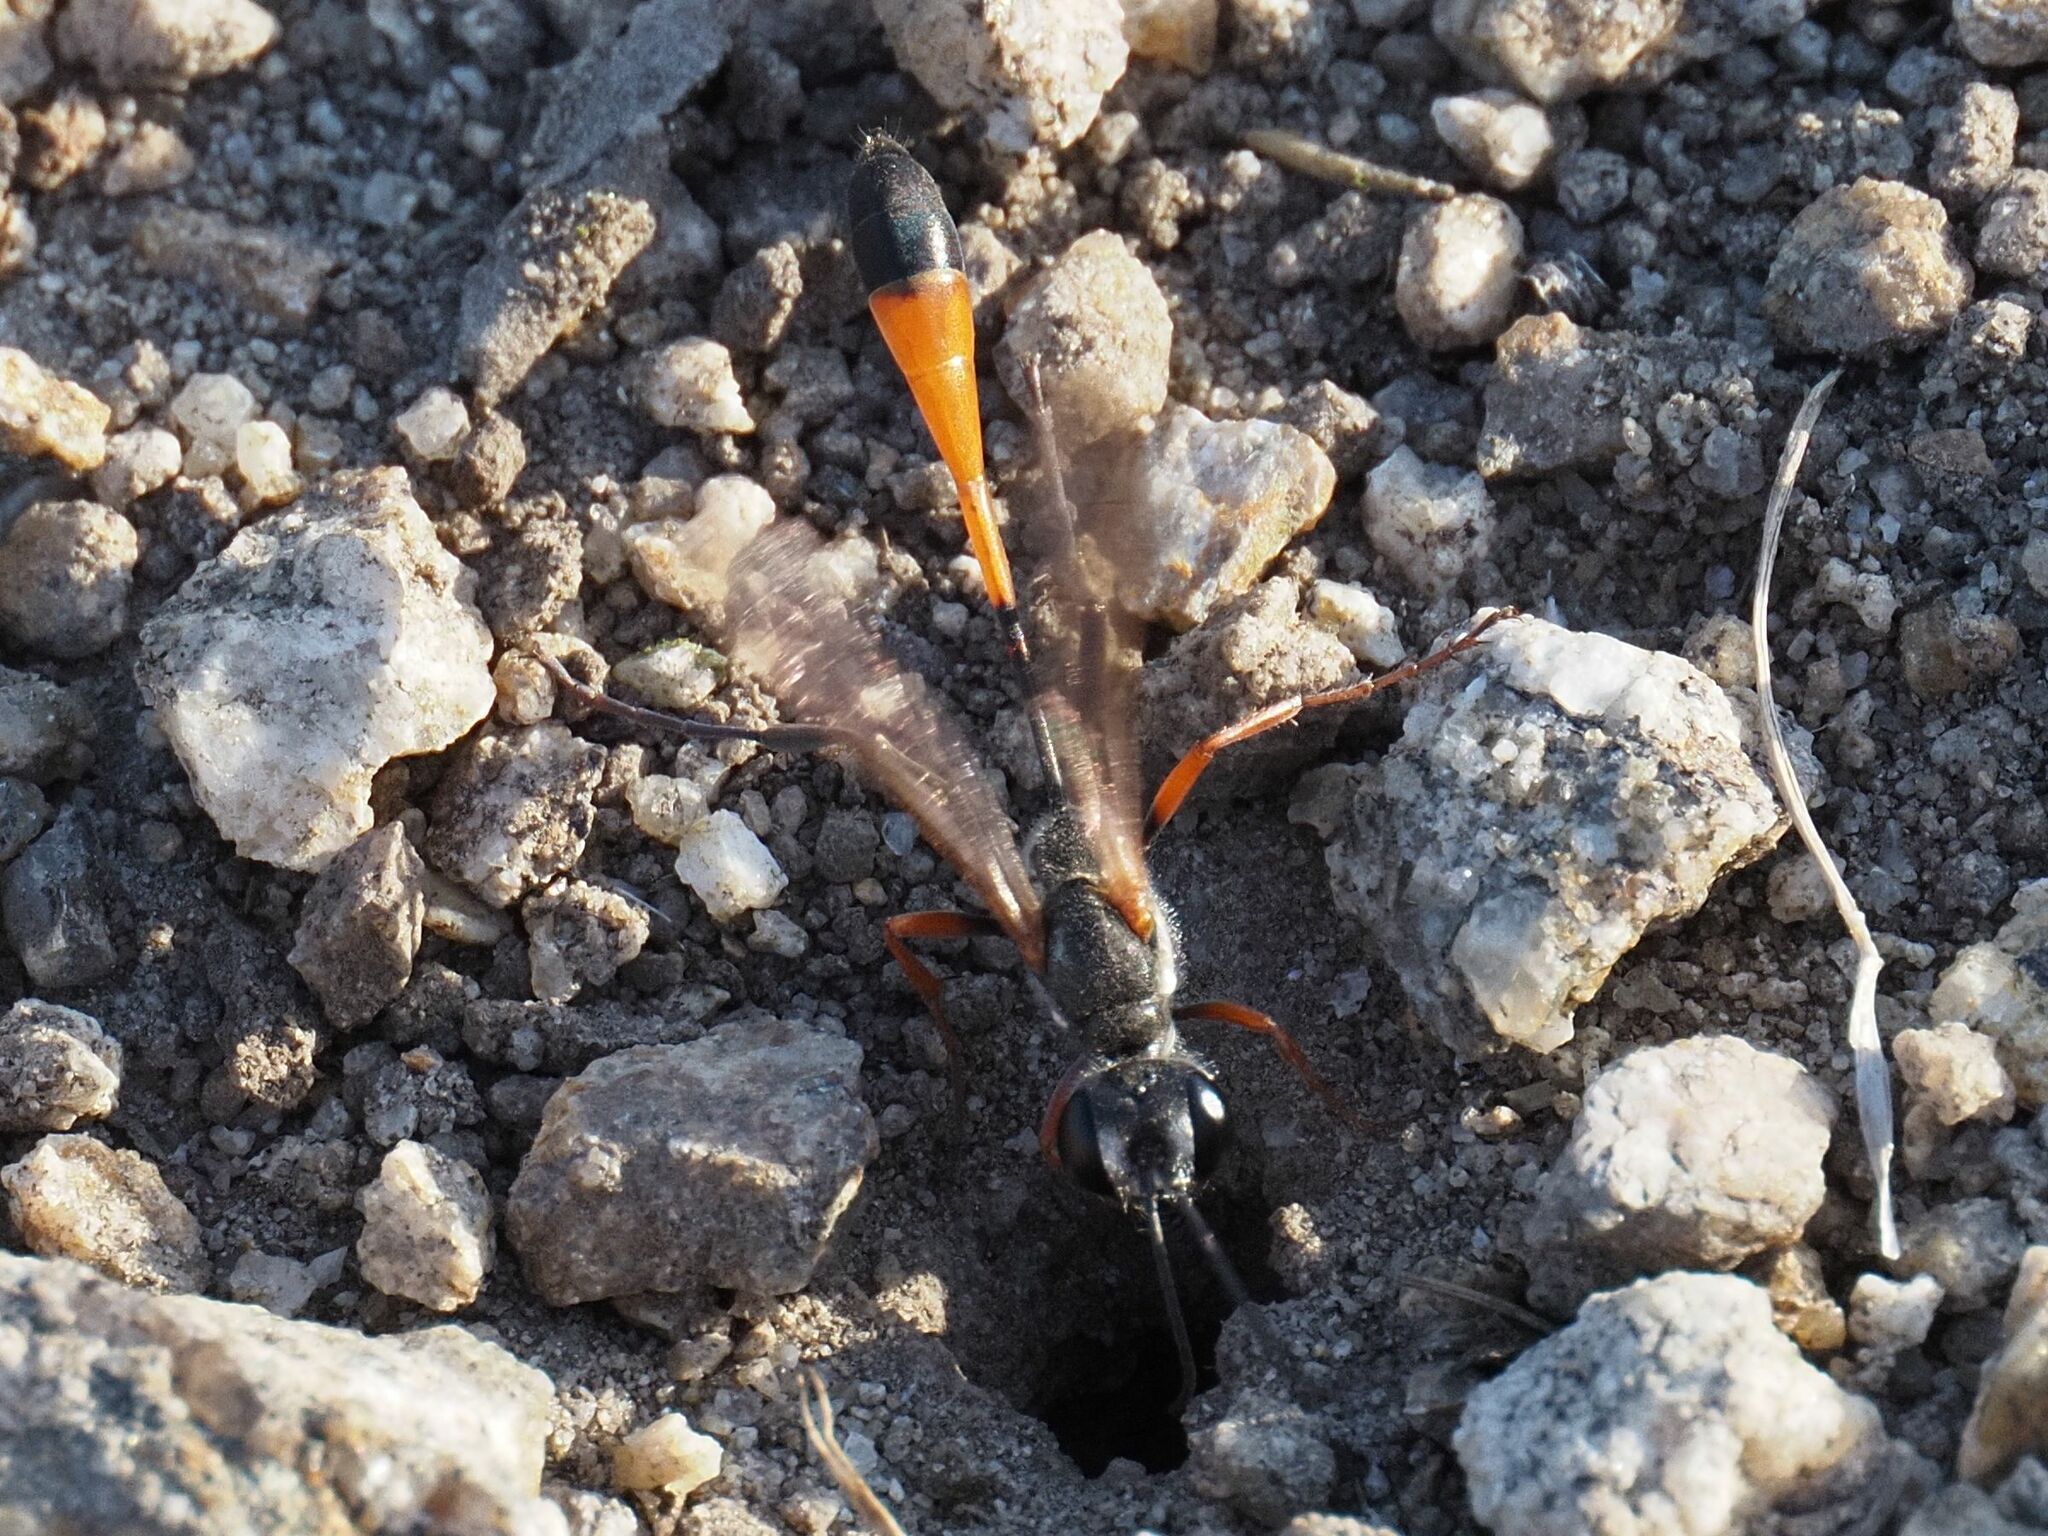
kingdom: Animalia
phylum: Arthropoda
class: Insecta
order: Hymenoptera
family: Sphecidae
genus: Ammophila
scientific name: Ammophila heydeni
